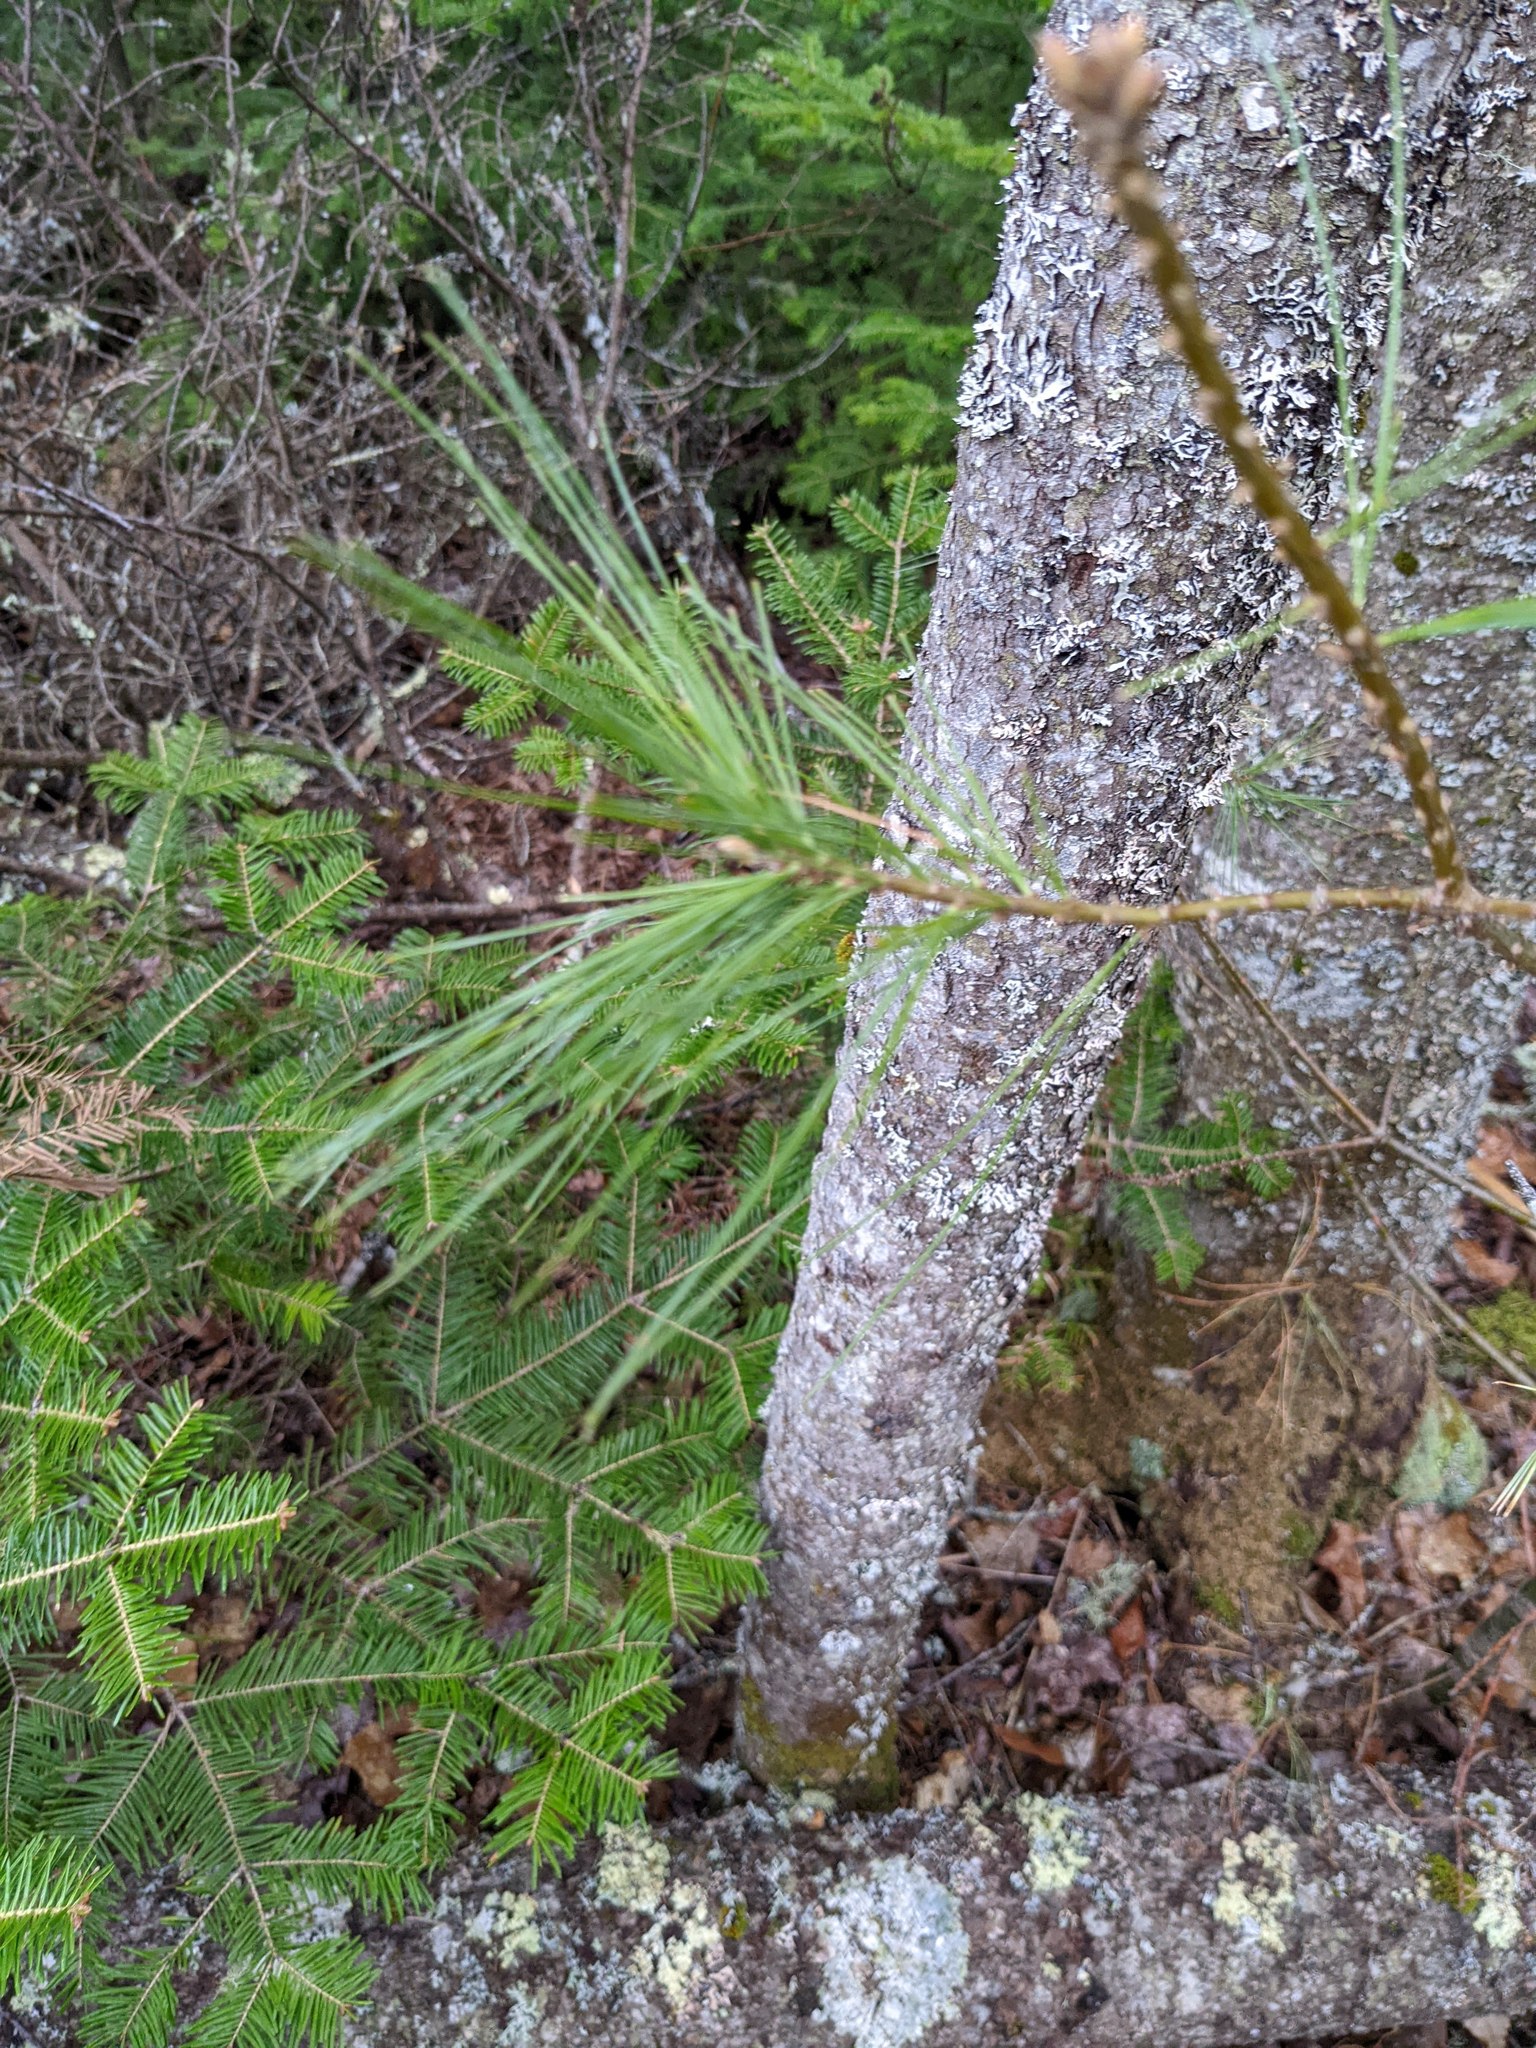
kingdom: Plantae
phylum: Tracheophyta
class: Pinopsida
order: Pinales
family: Pinaceae
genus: Pinus
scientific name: Pinus strobus
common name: Weymouth pine
